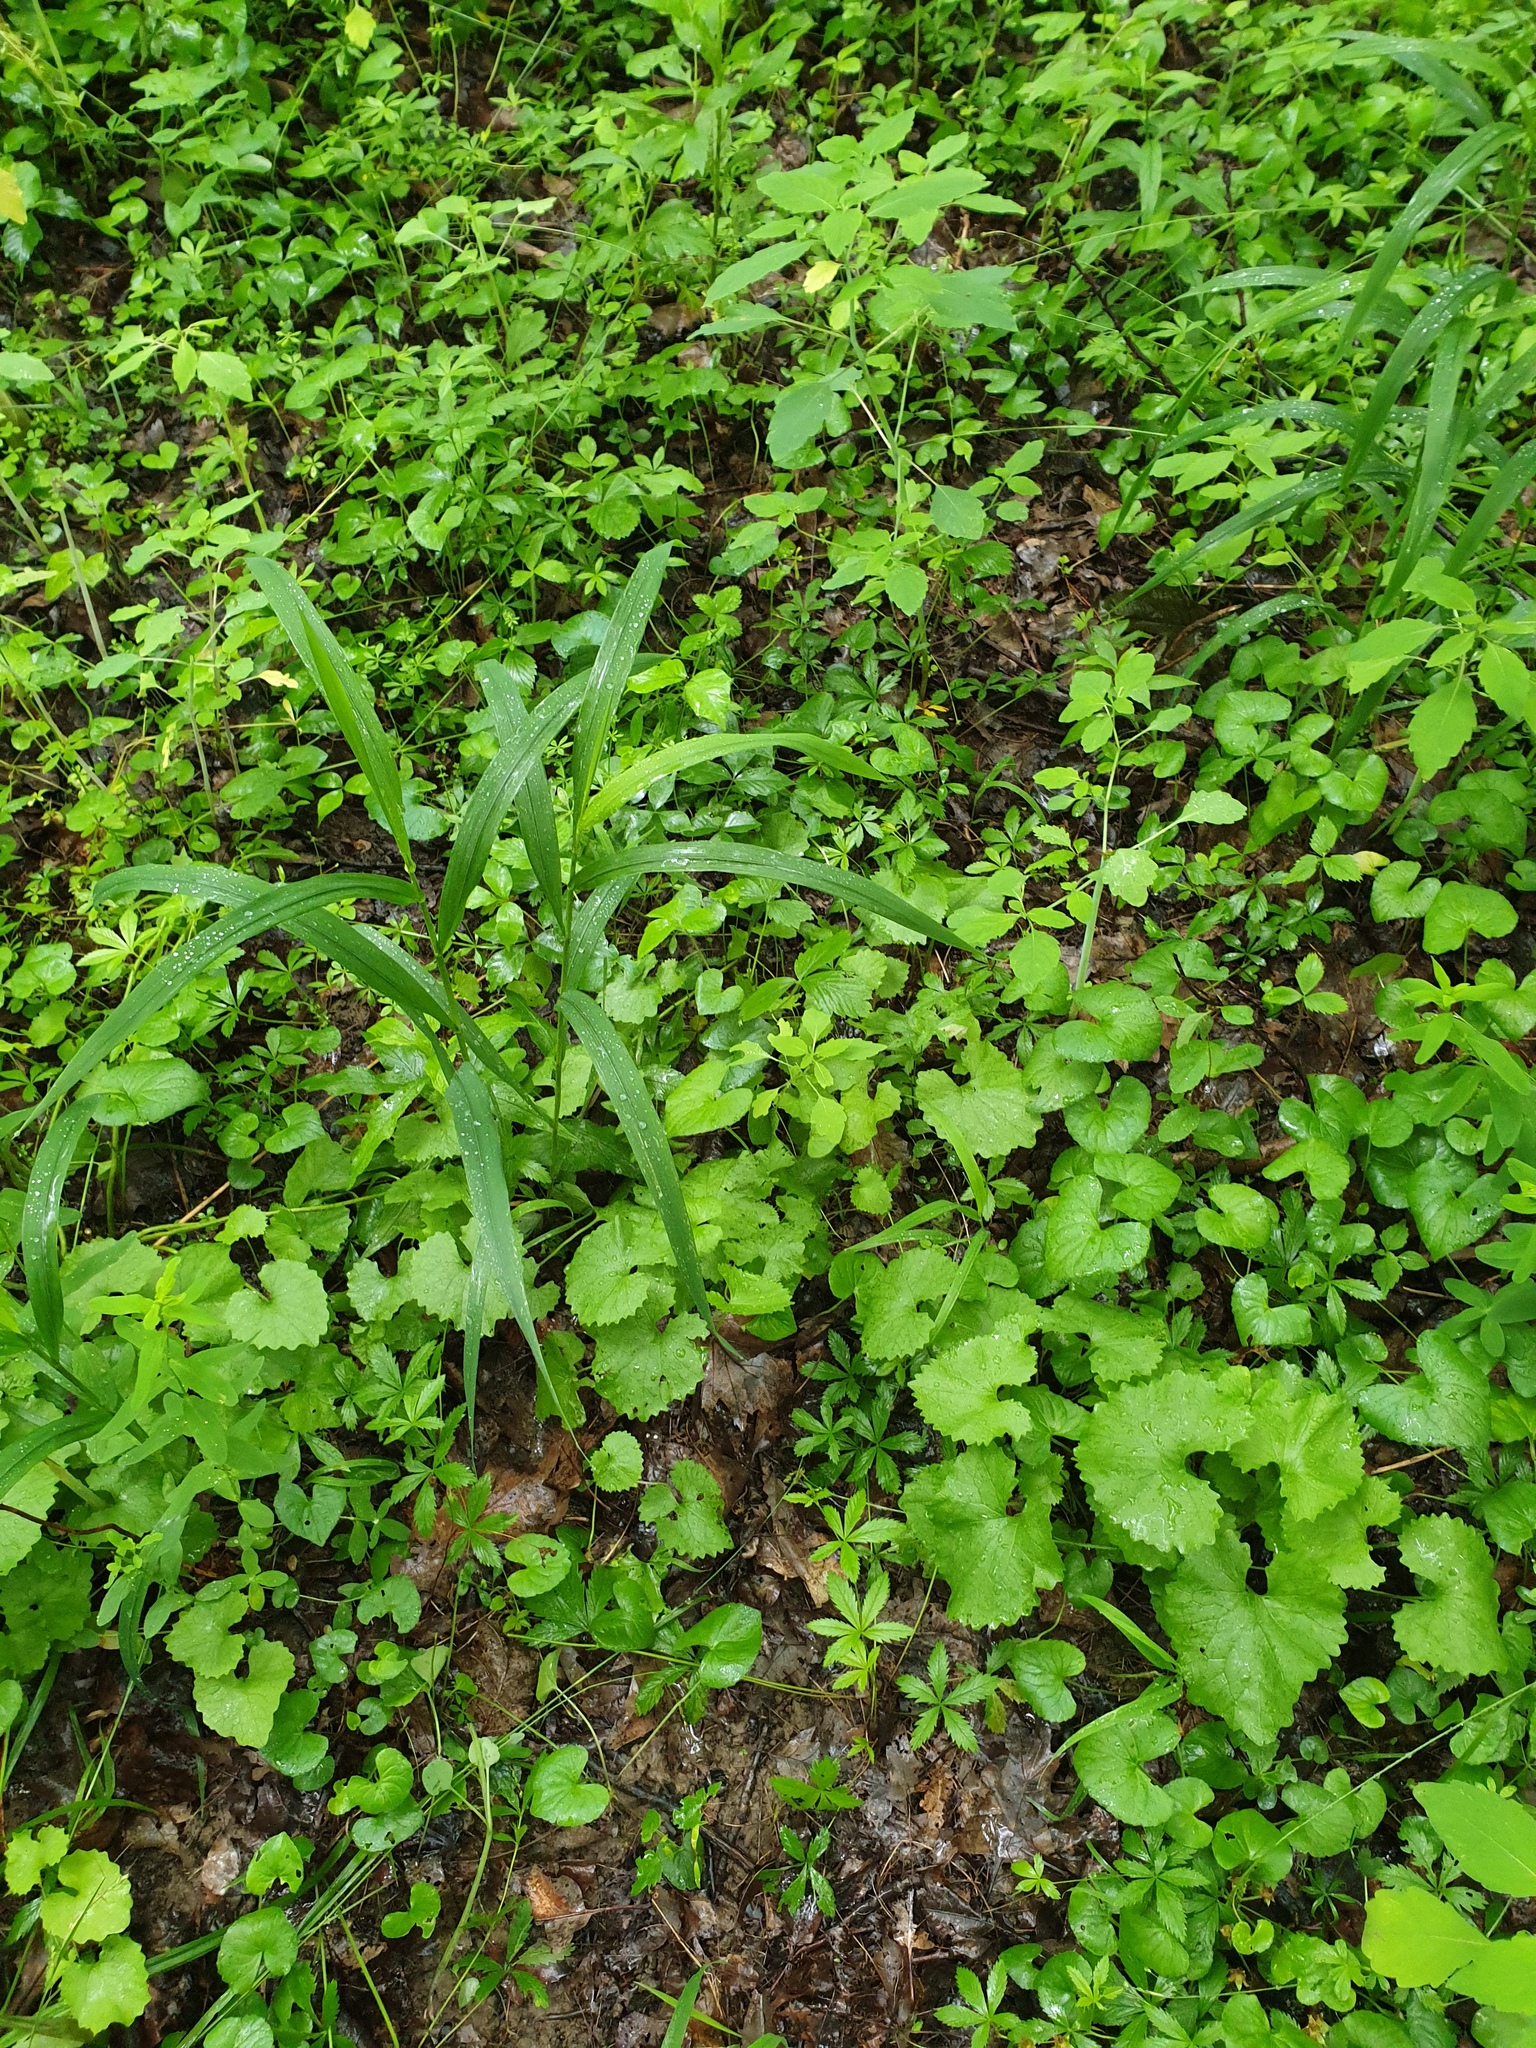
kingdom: Plantae
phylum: Tracheophyta
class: Magnoliopsida
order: Rosales
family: Rosaceae
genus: Potentilla
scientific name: Potentilla simplex
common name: Old field cinquefoil
